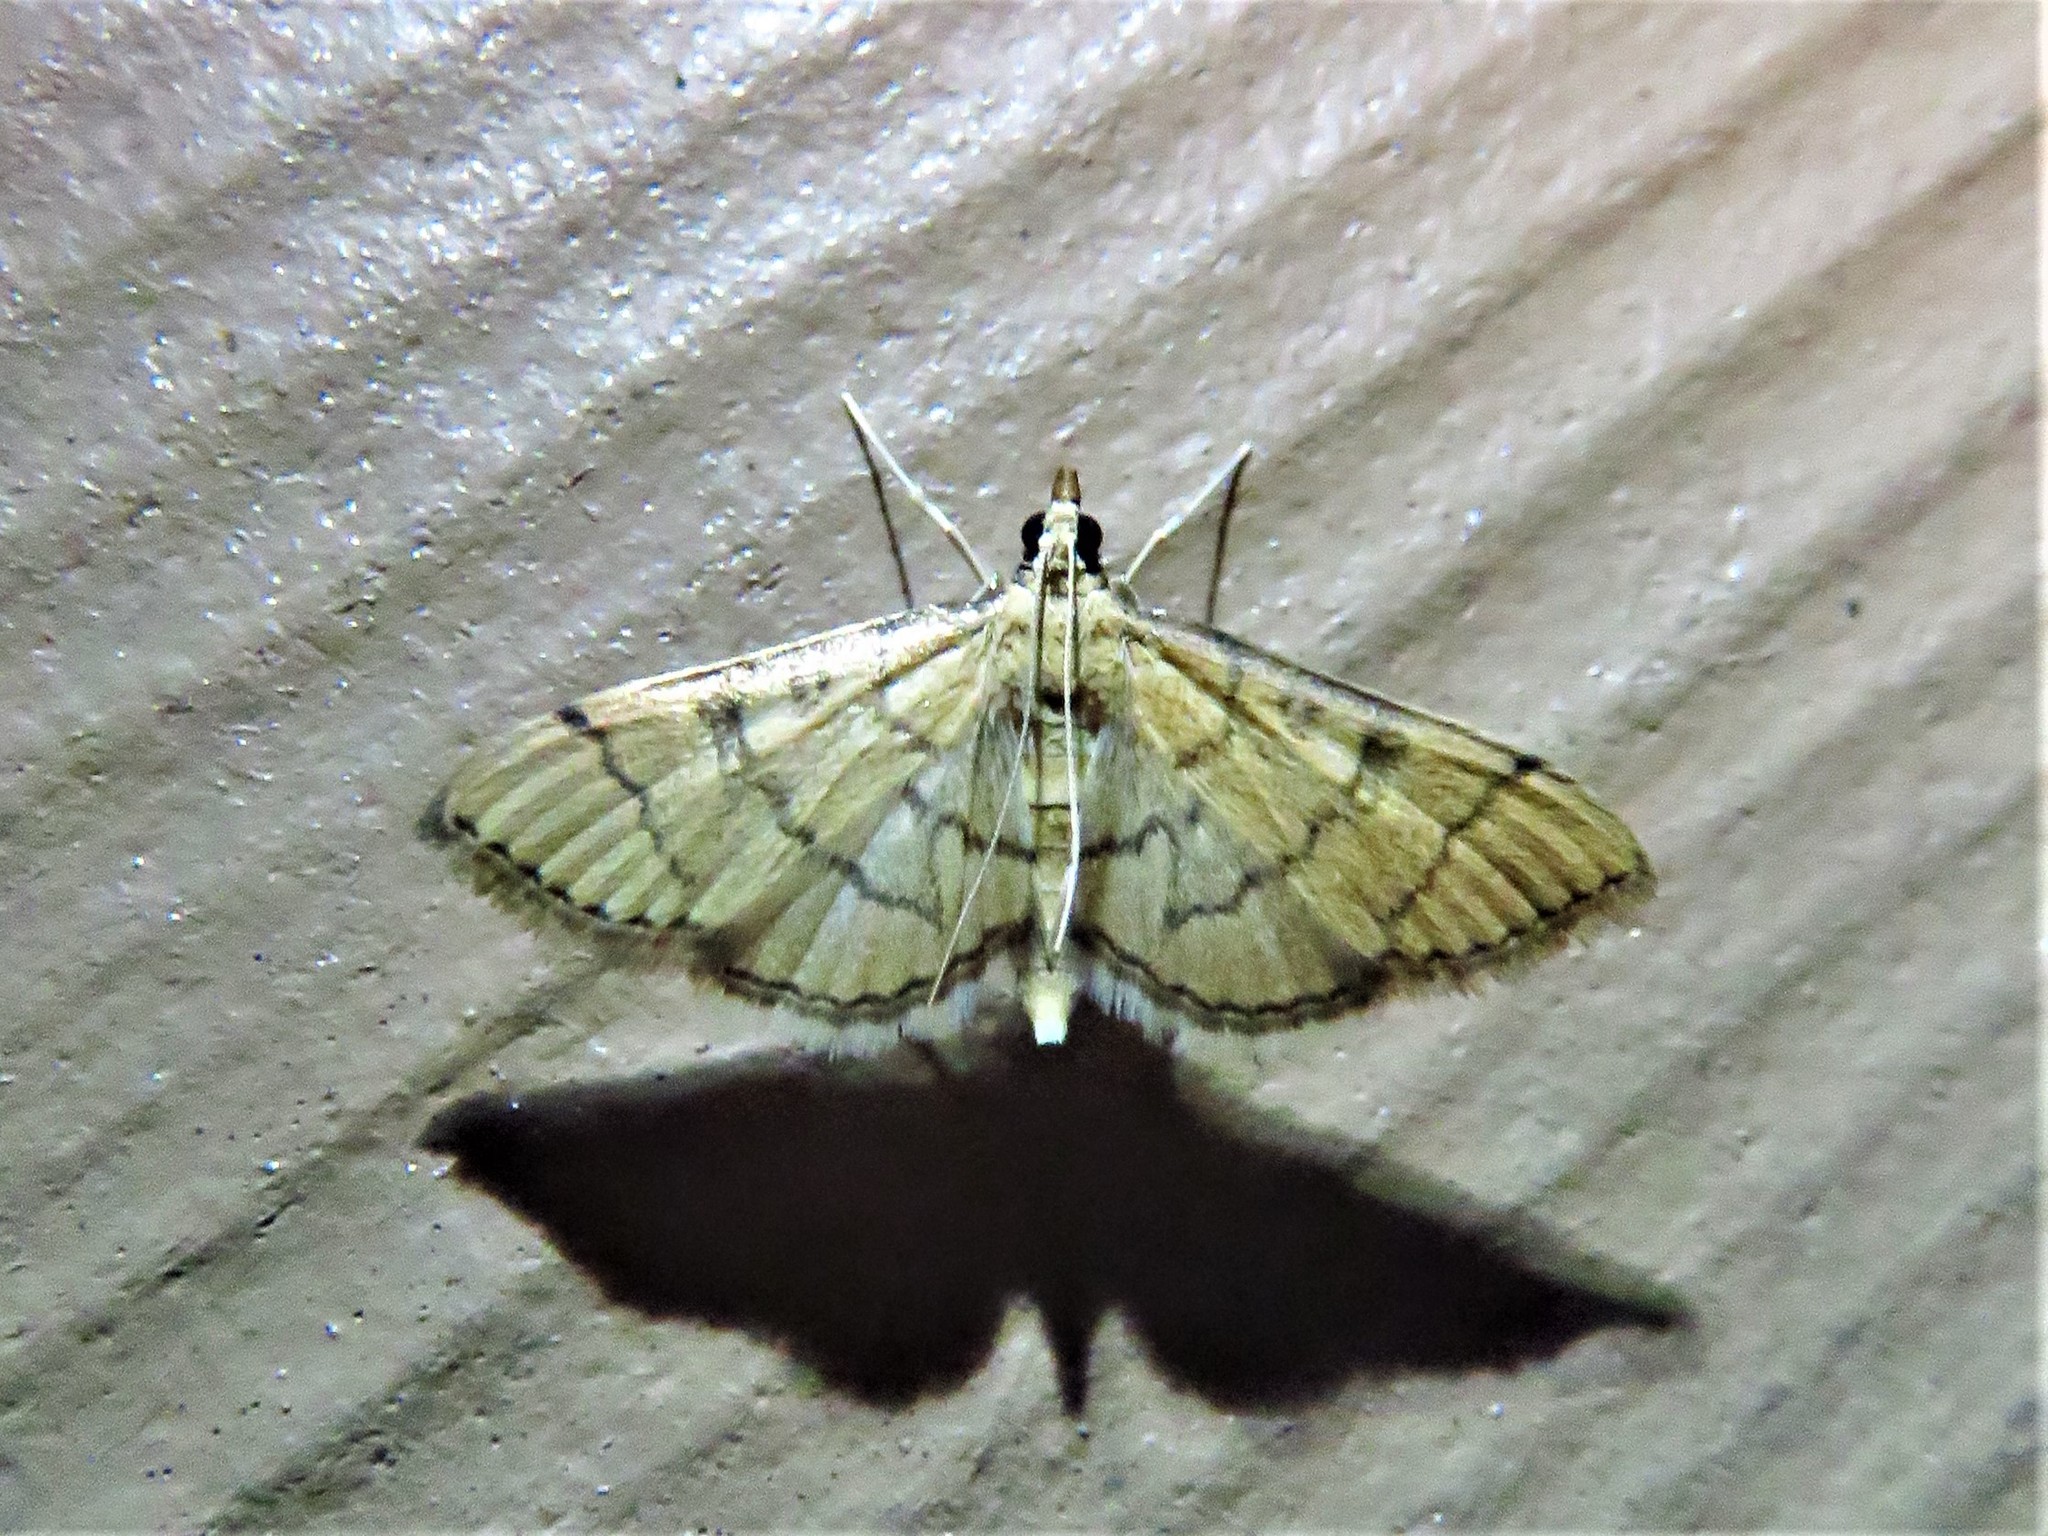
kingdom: Animalia
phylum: Arthropoda
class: Insecta
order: Lepidoptera
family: Crambidae
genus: Lamprosema
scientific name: Lamprosema Blepharomastix ranalis
